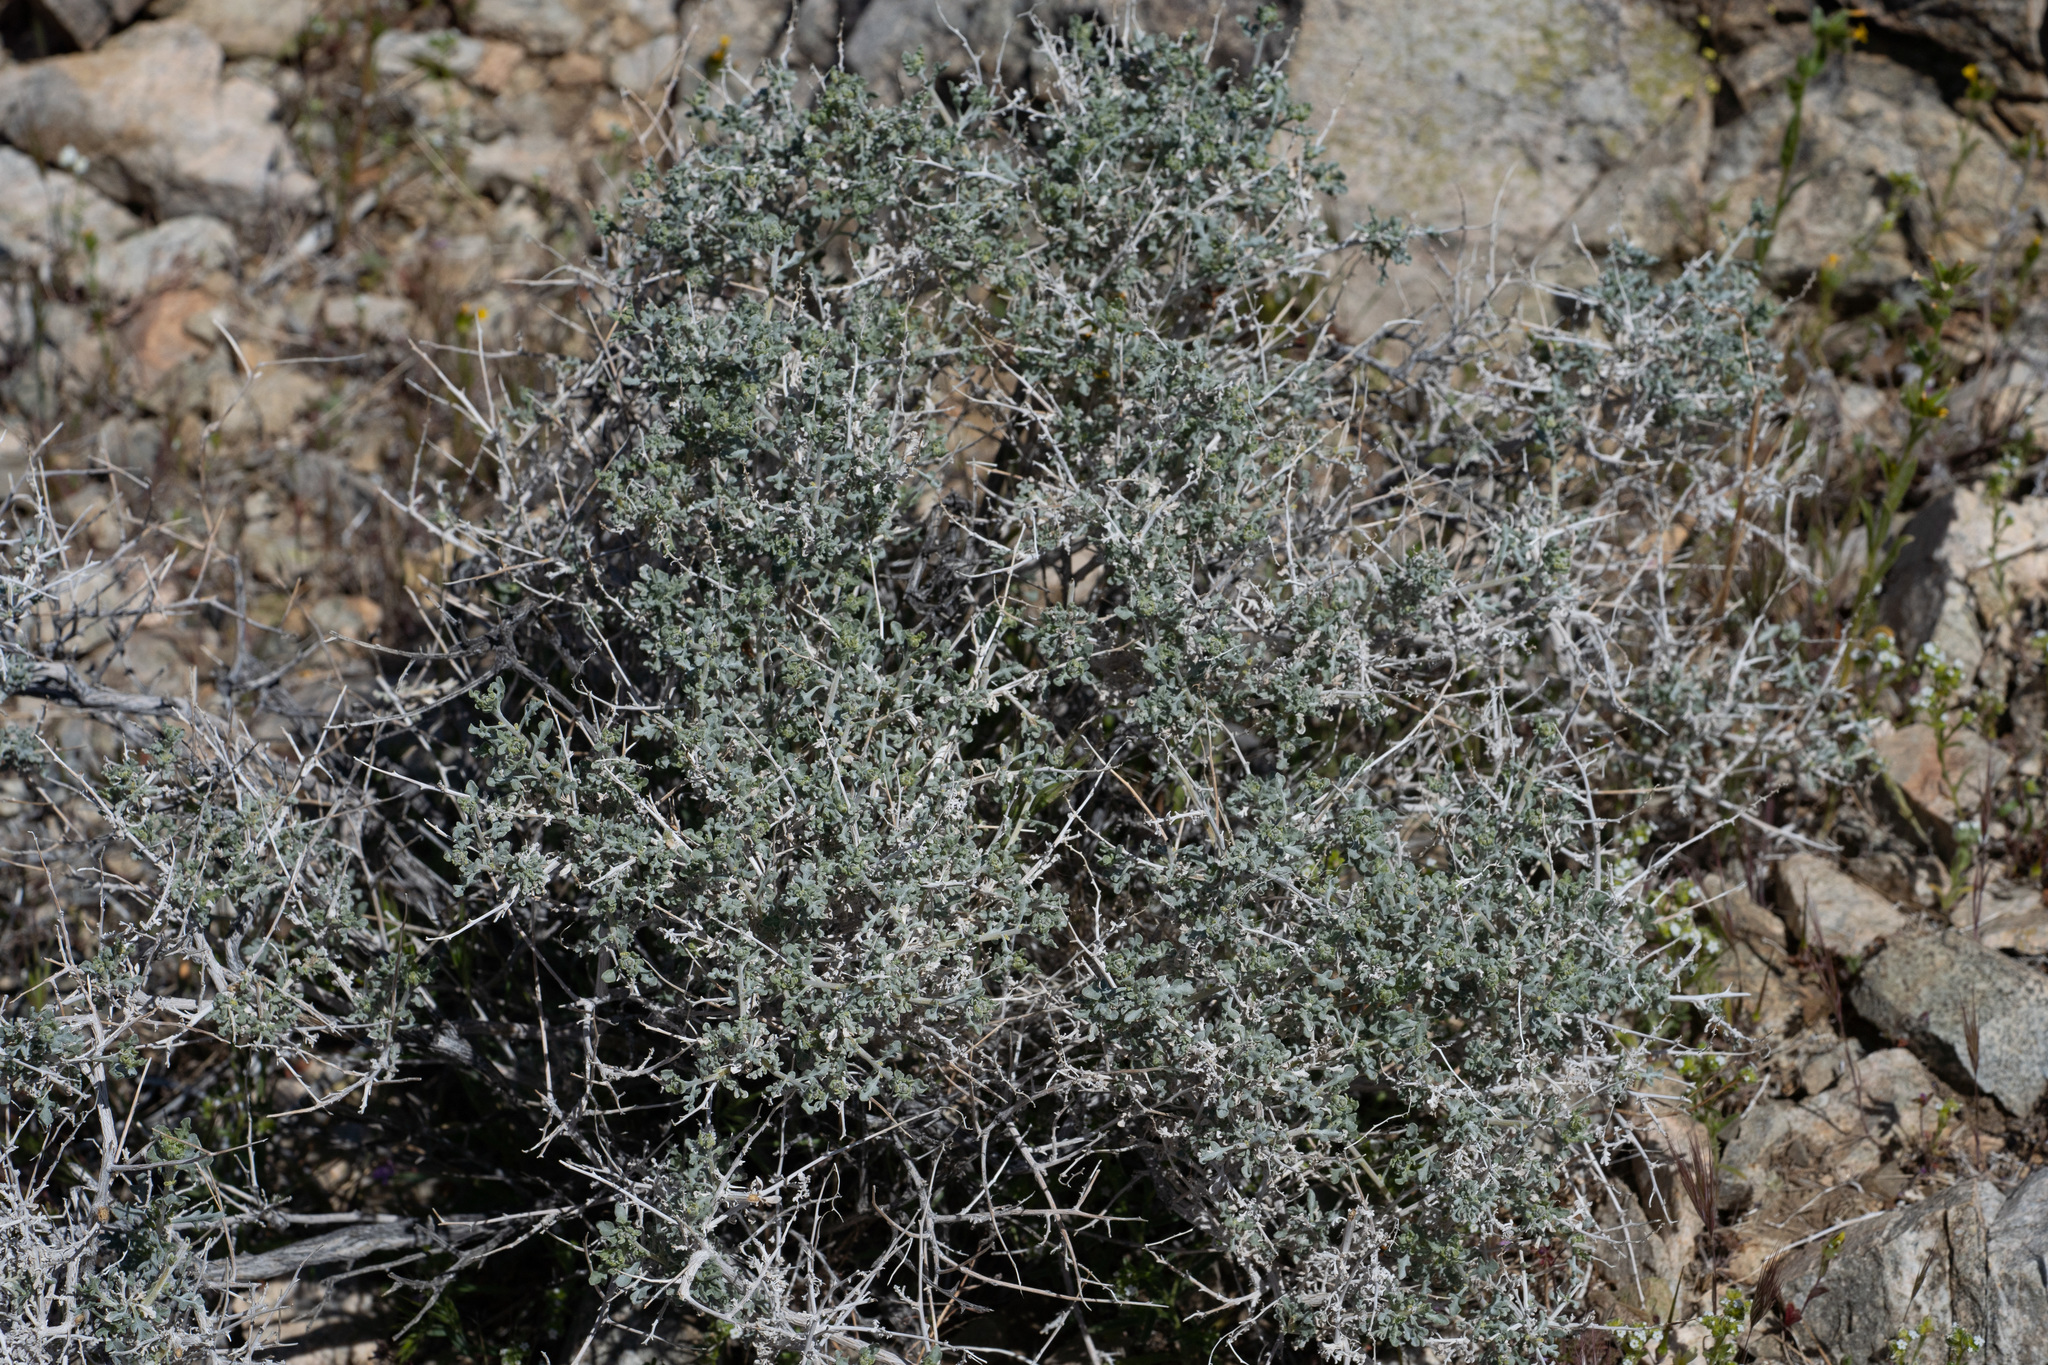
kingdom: Plantae
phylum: Tracheophyta
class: Magnoliopsida
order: Asterales
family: Asteraceae
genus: Ambrosia
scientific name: Ambrosia dumosa
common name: Bur-sage
